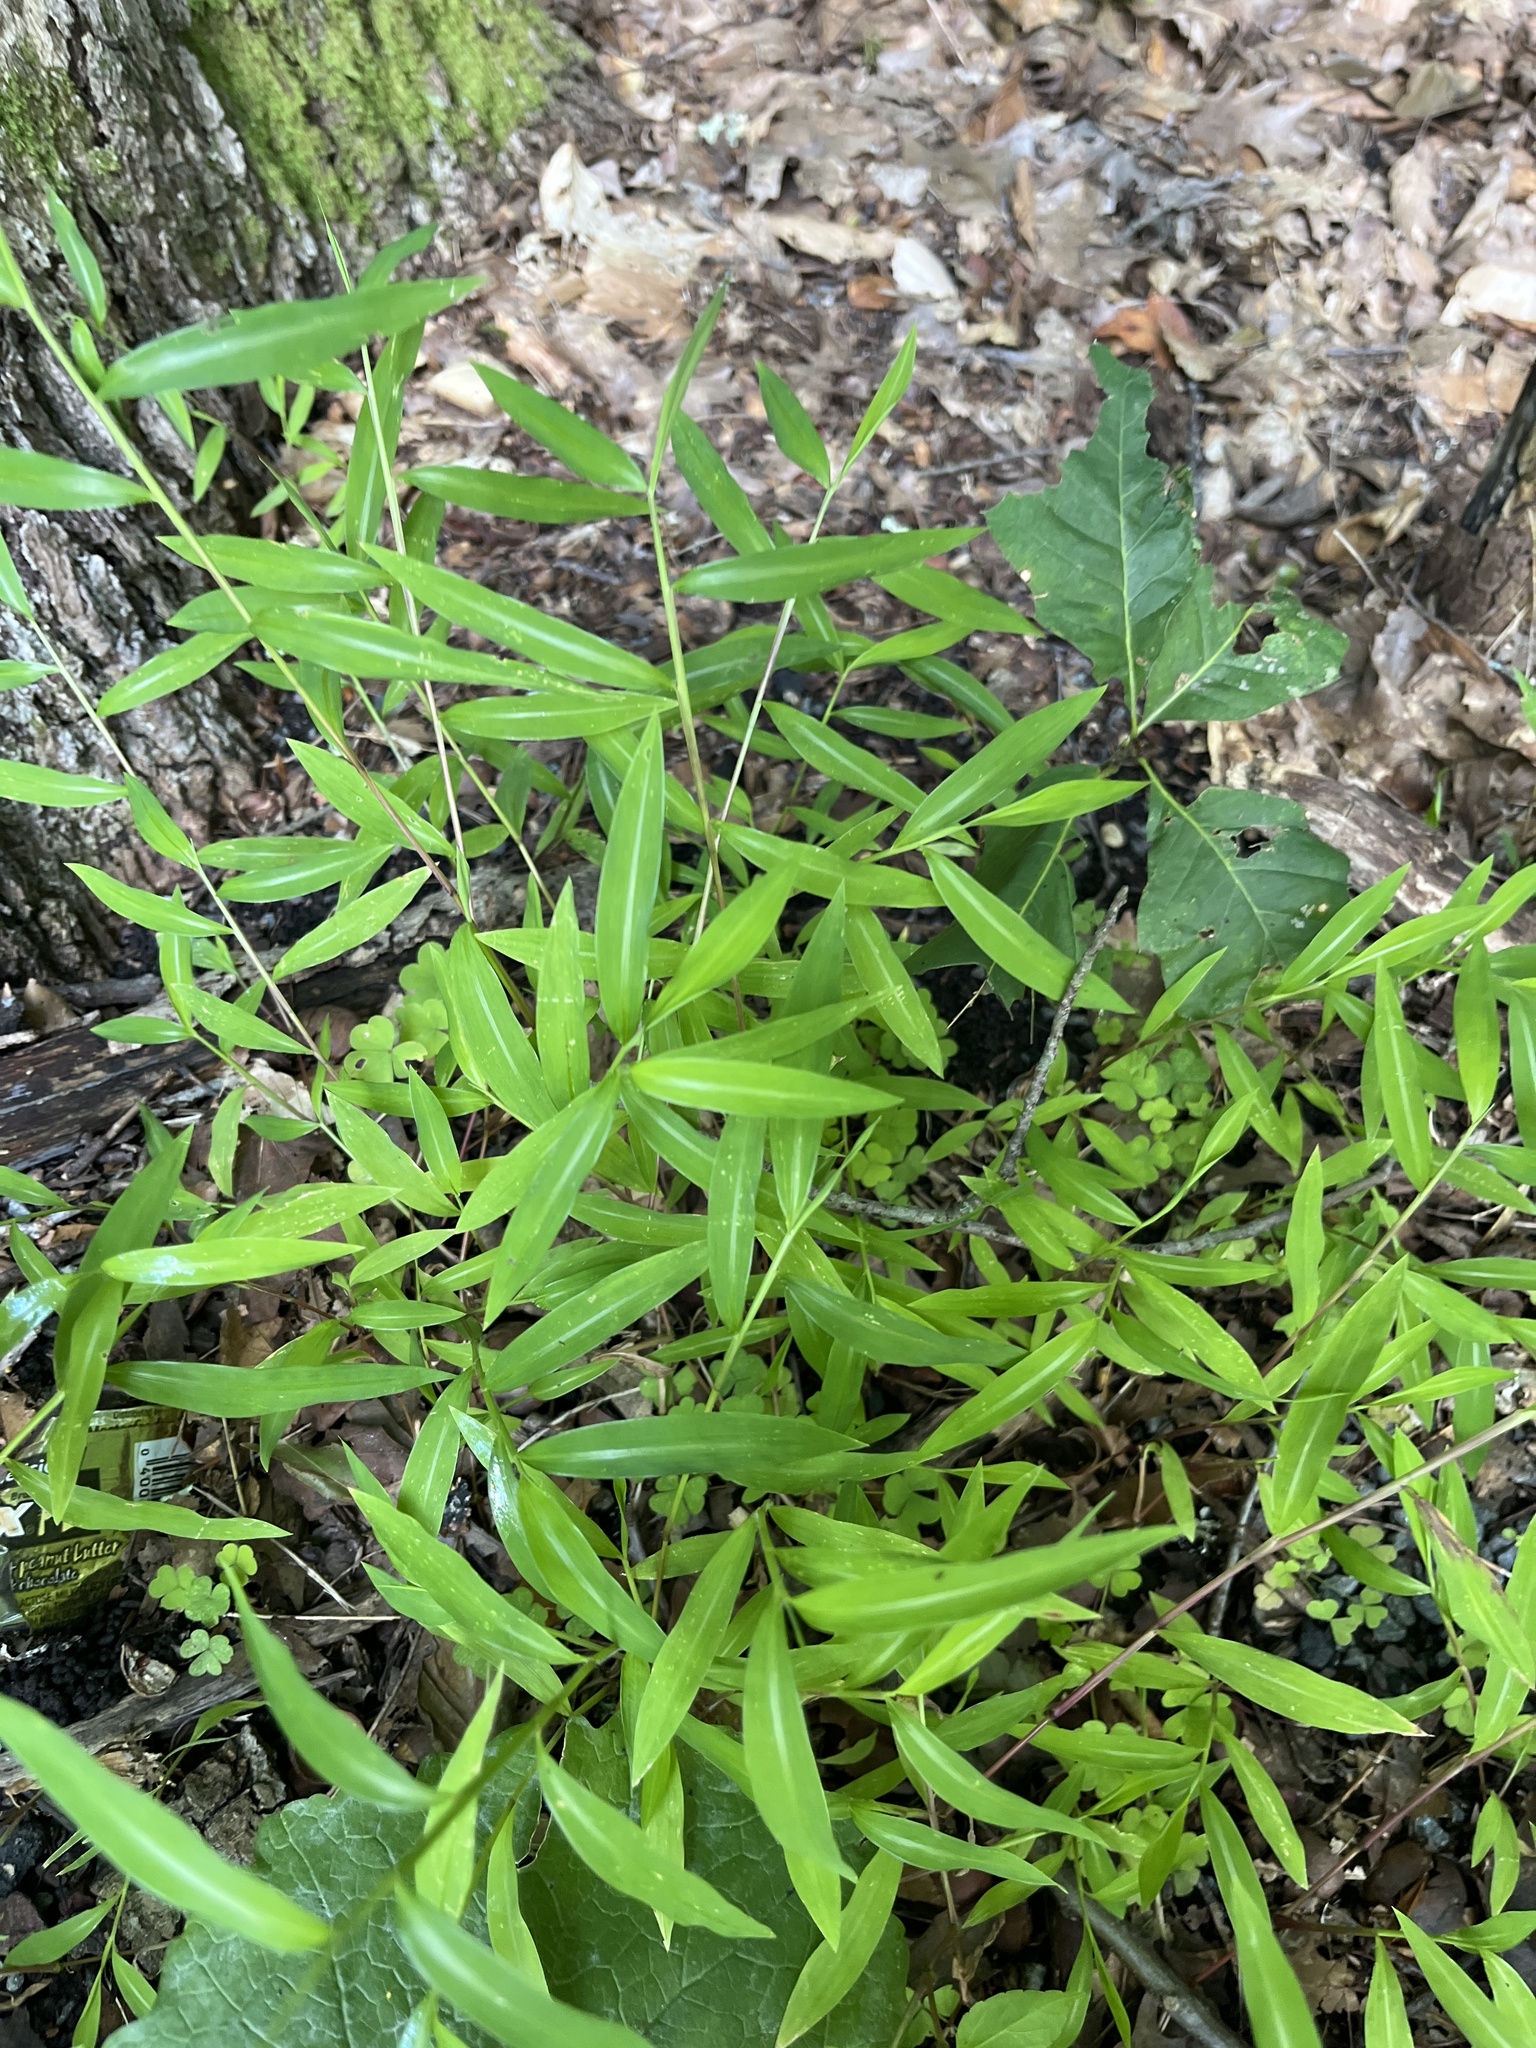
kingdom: Plantae
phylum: Tracheophyta
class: Liliopsida
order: Poales
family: Poaceae
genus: Microstegium
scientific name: Microstegium vimineum
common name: Japanese stiltgrass
